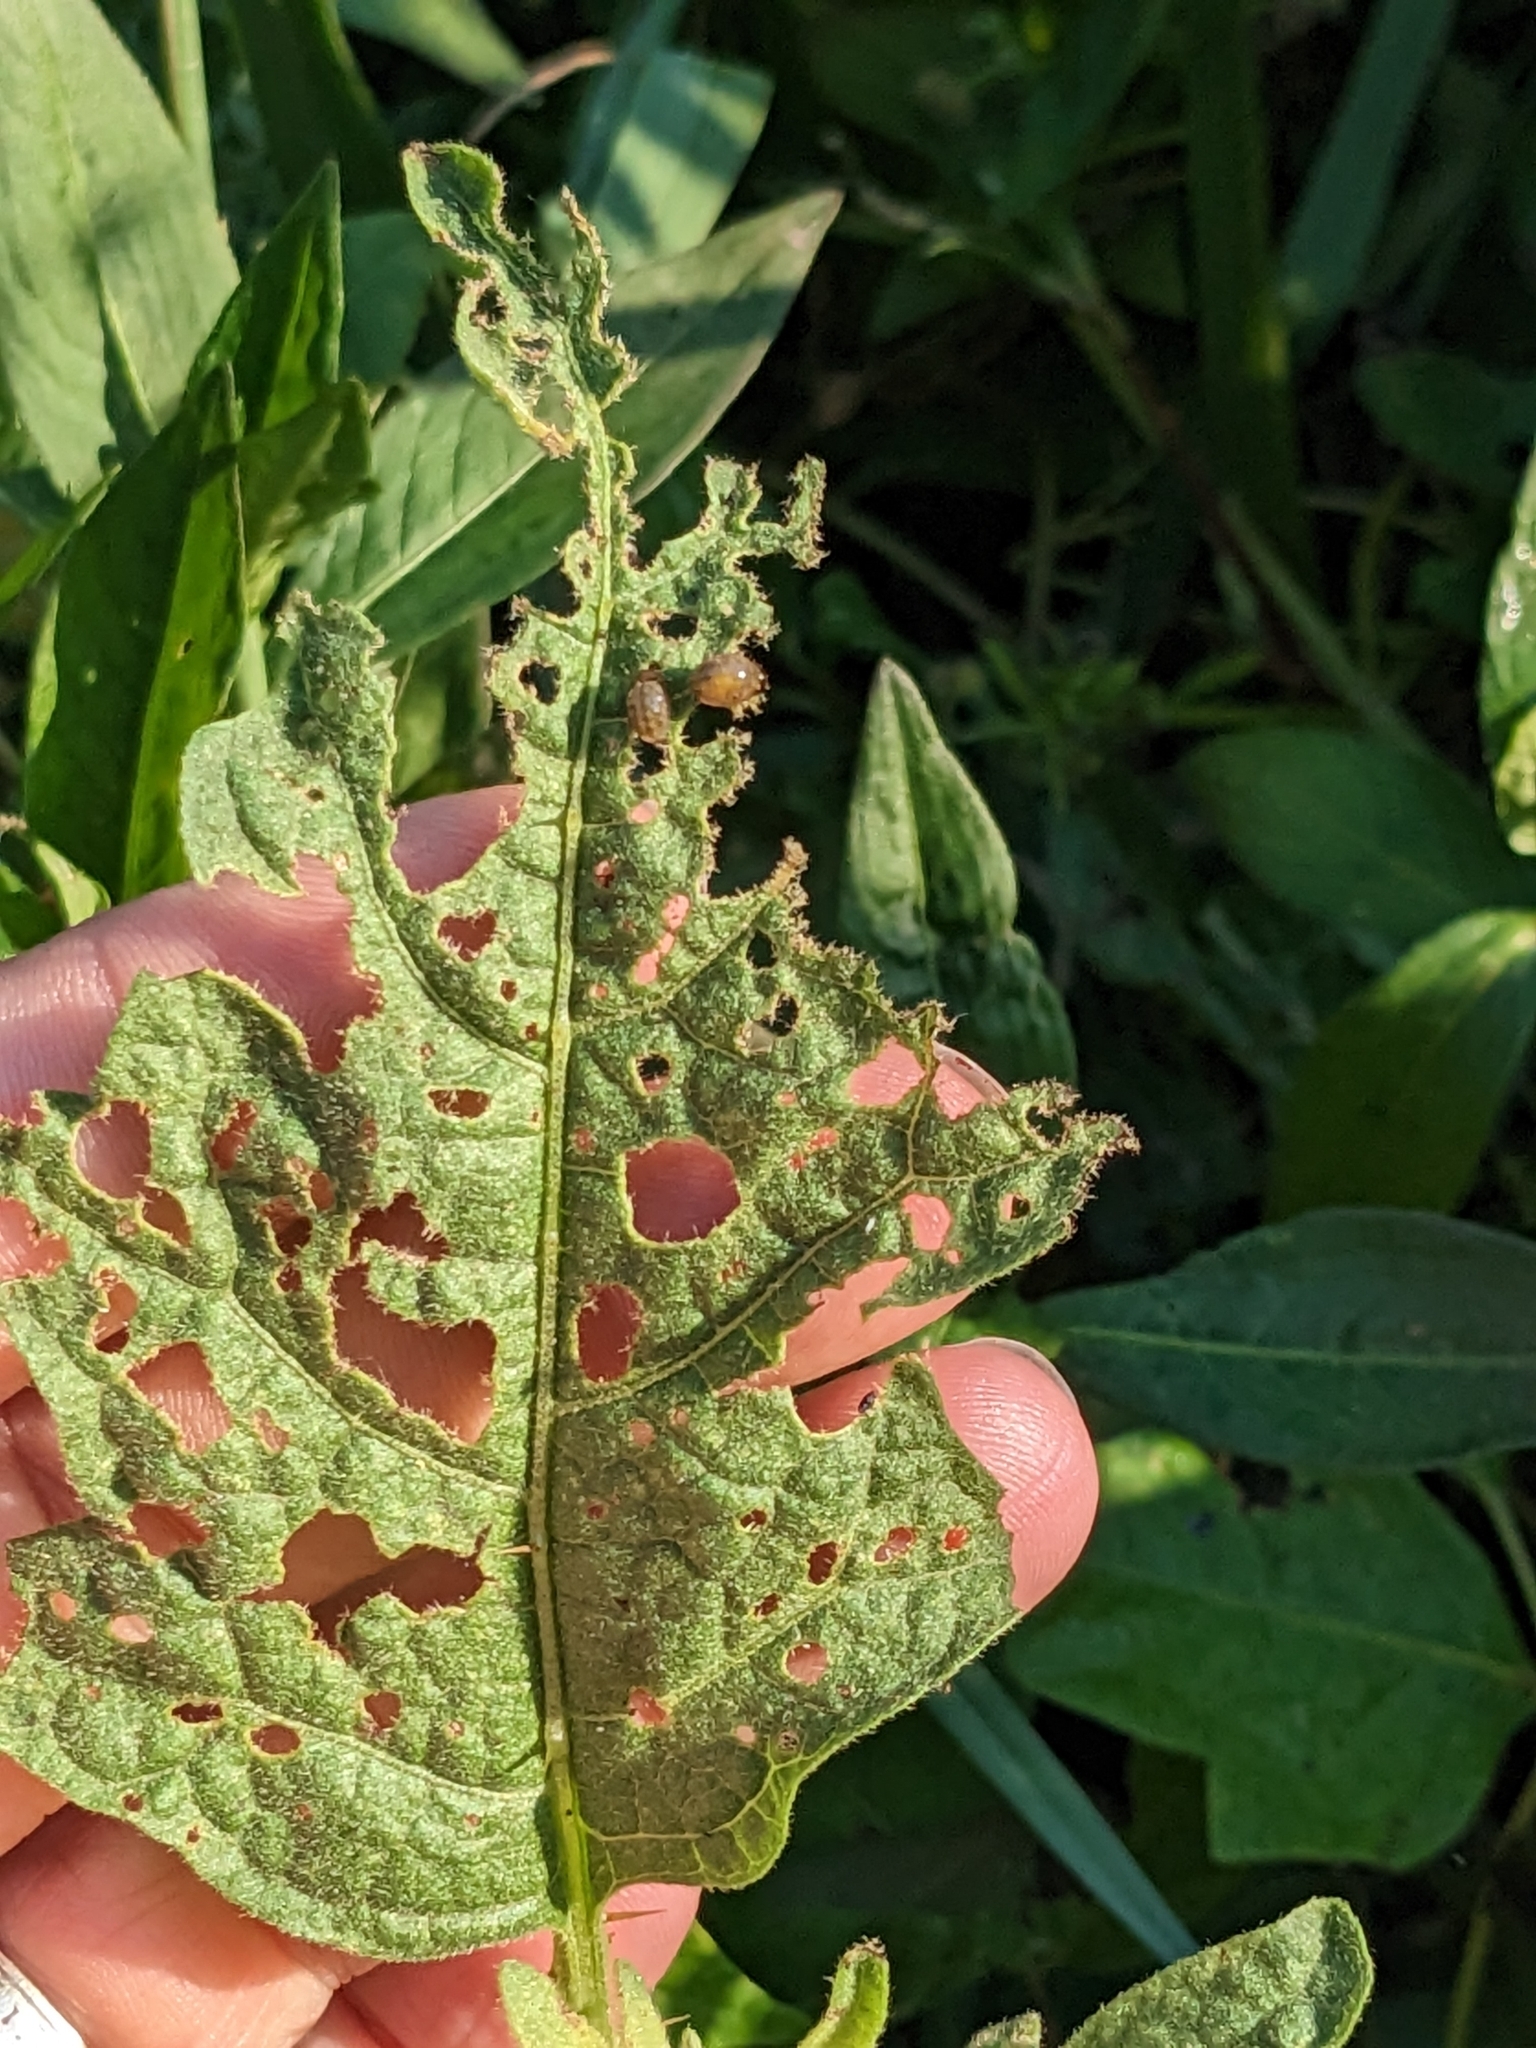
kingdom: Animalia
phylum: Arthropoda
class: Insecta
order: Coleoptera
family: Chrysomelidae
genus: Leptinotarsa
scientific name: Leptinotarsa juncta
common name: False potato beetle
